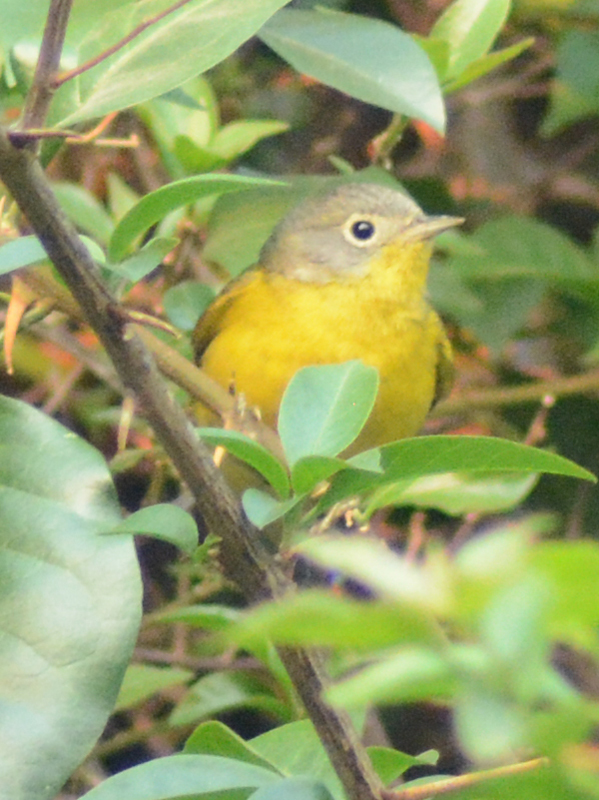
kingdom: Animalia
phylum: Chordata
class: Aves
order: Passeriformes
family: Parulidae
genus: Leiothlypis
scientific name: Leiothlypis ruficapilla
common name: Nashville warbler
